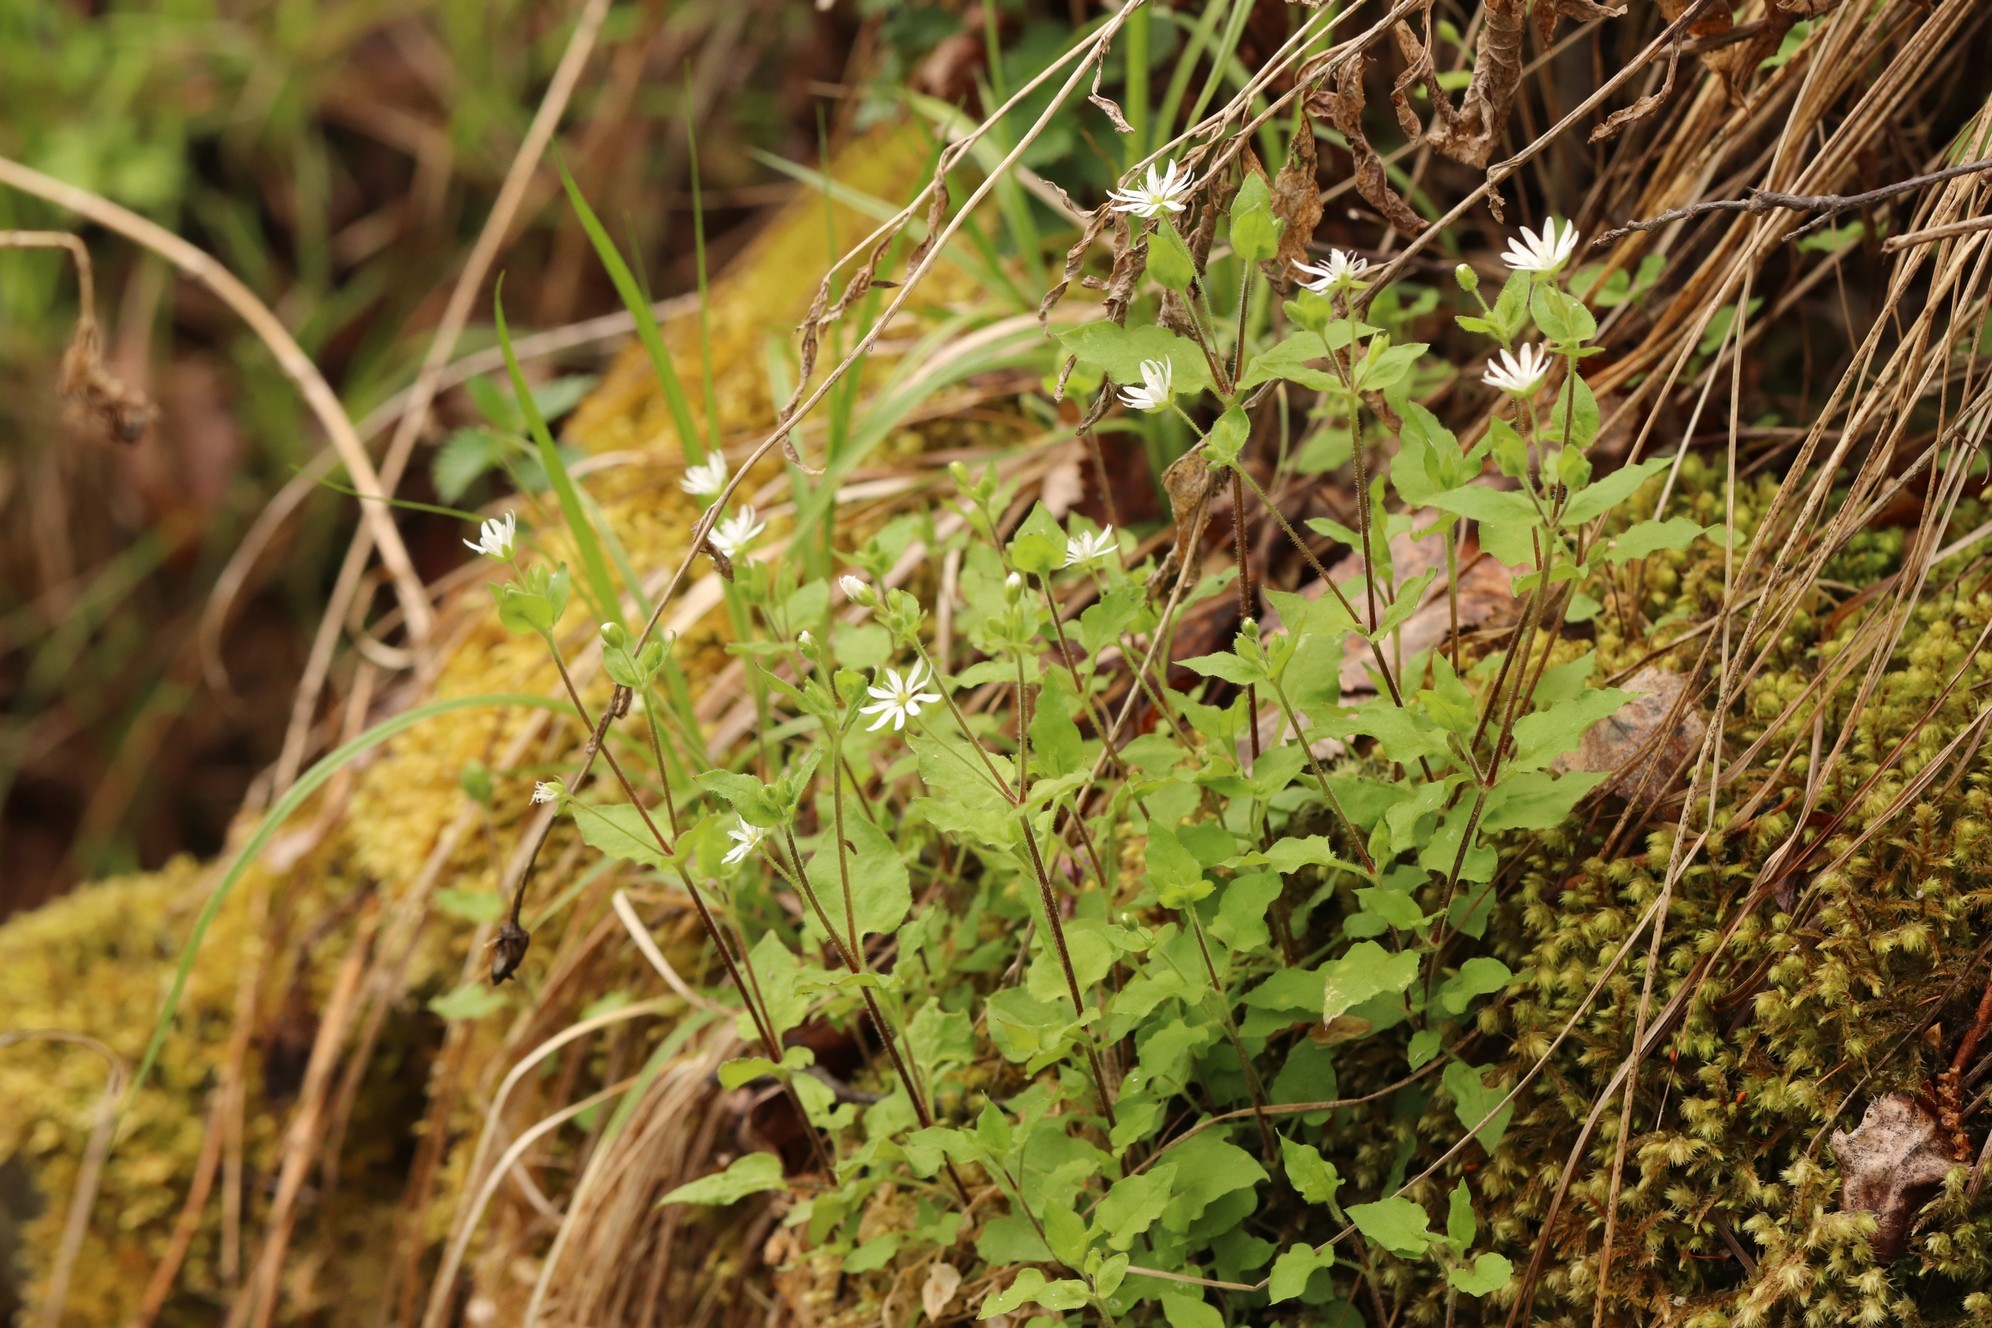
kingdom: Plantae
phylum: Tracheophyta
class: Magnoliopsida
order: Caryophyllales
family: Caryophyllaceae
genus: Stellaria
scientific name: Stellaria bungeana
